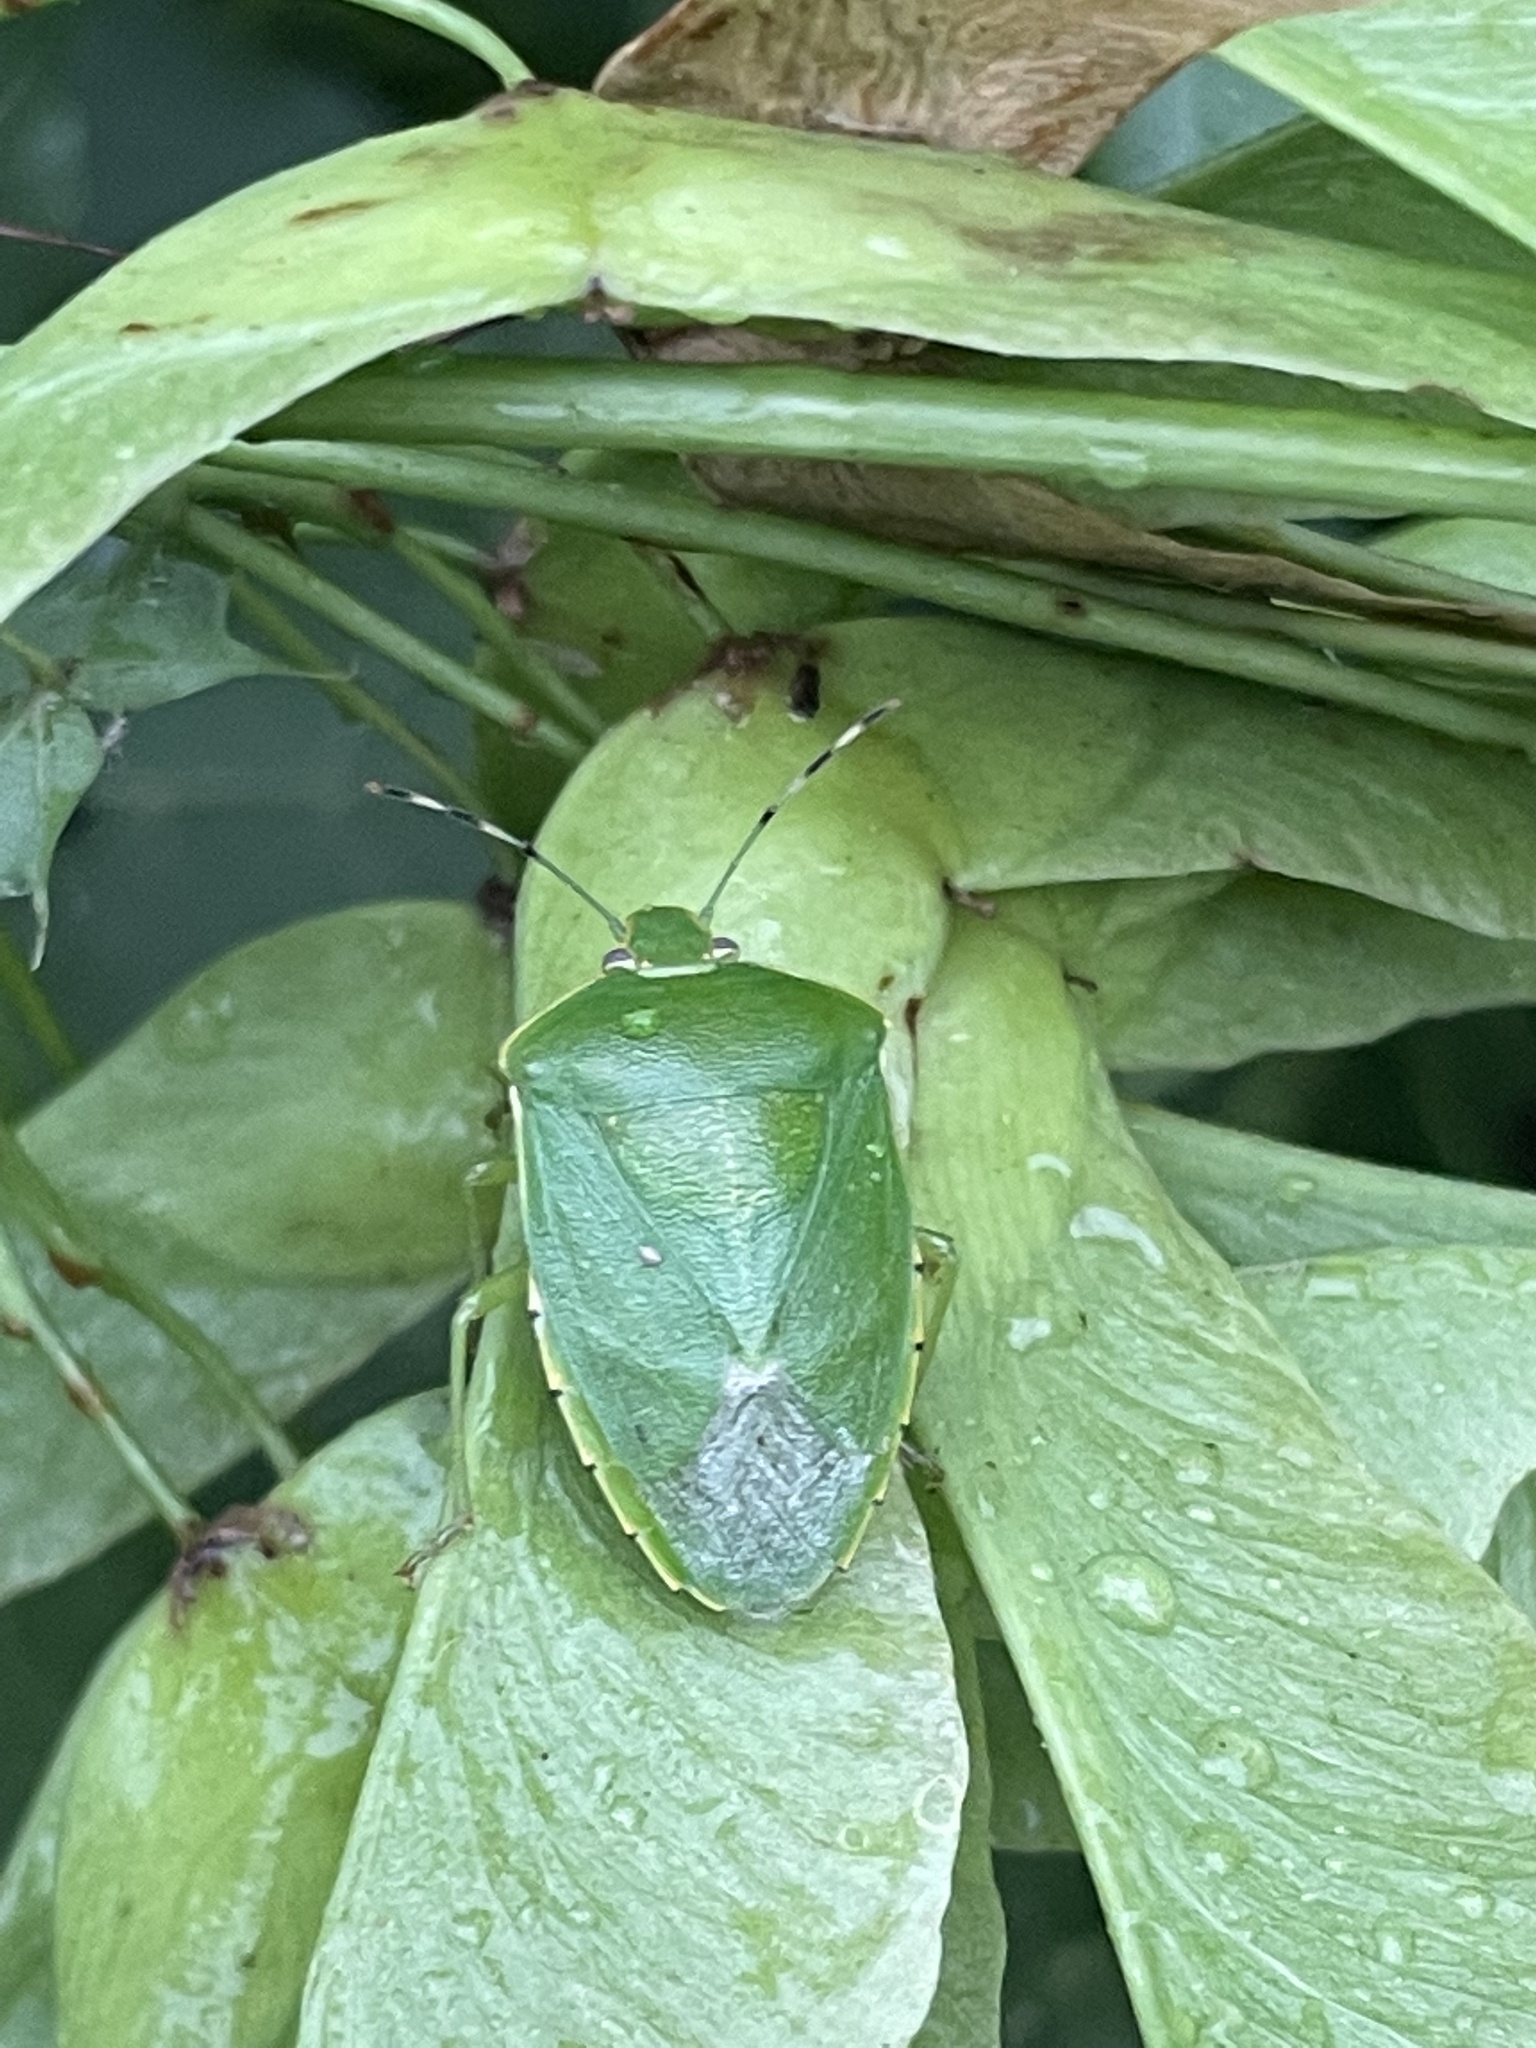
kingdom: Animalia
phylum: Arthropoda
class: Insecta
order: Hemiptera
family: Pentatomidae
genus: Chinavia
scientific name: Chinavia hilaris
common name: Green stink bug
